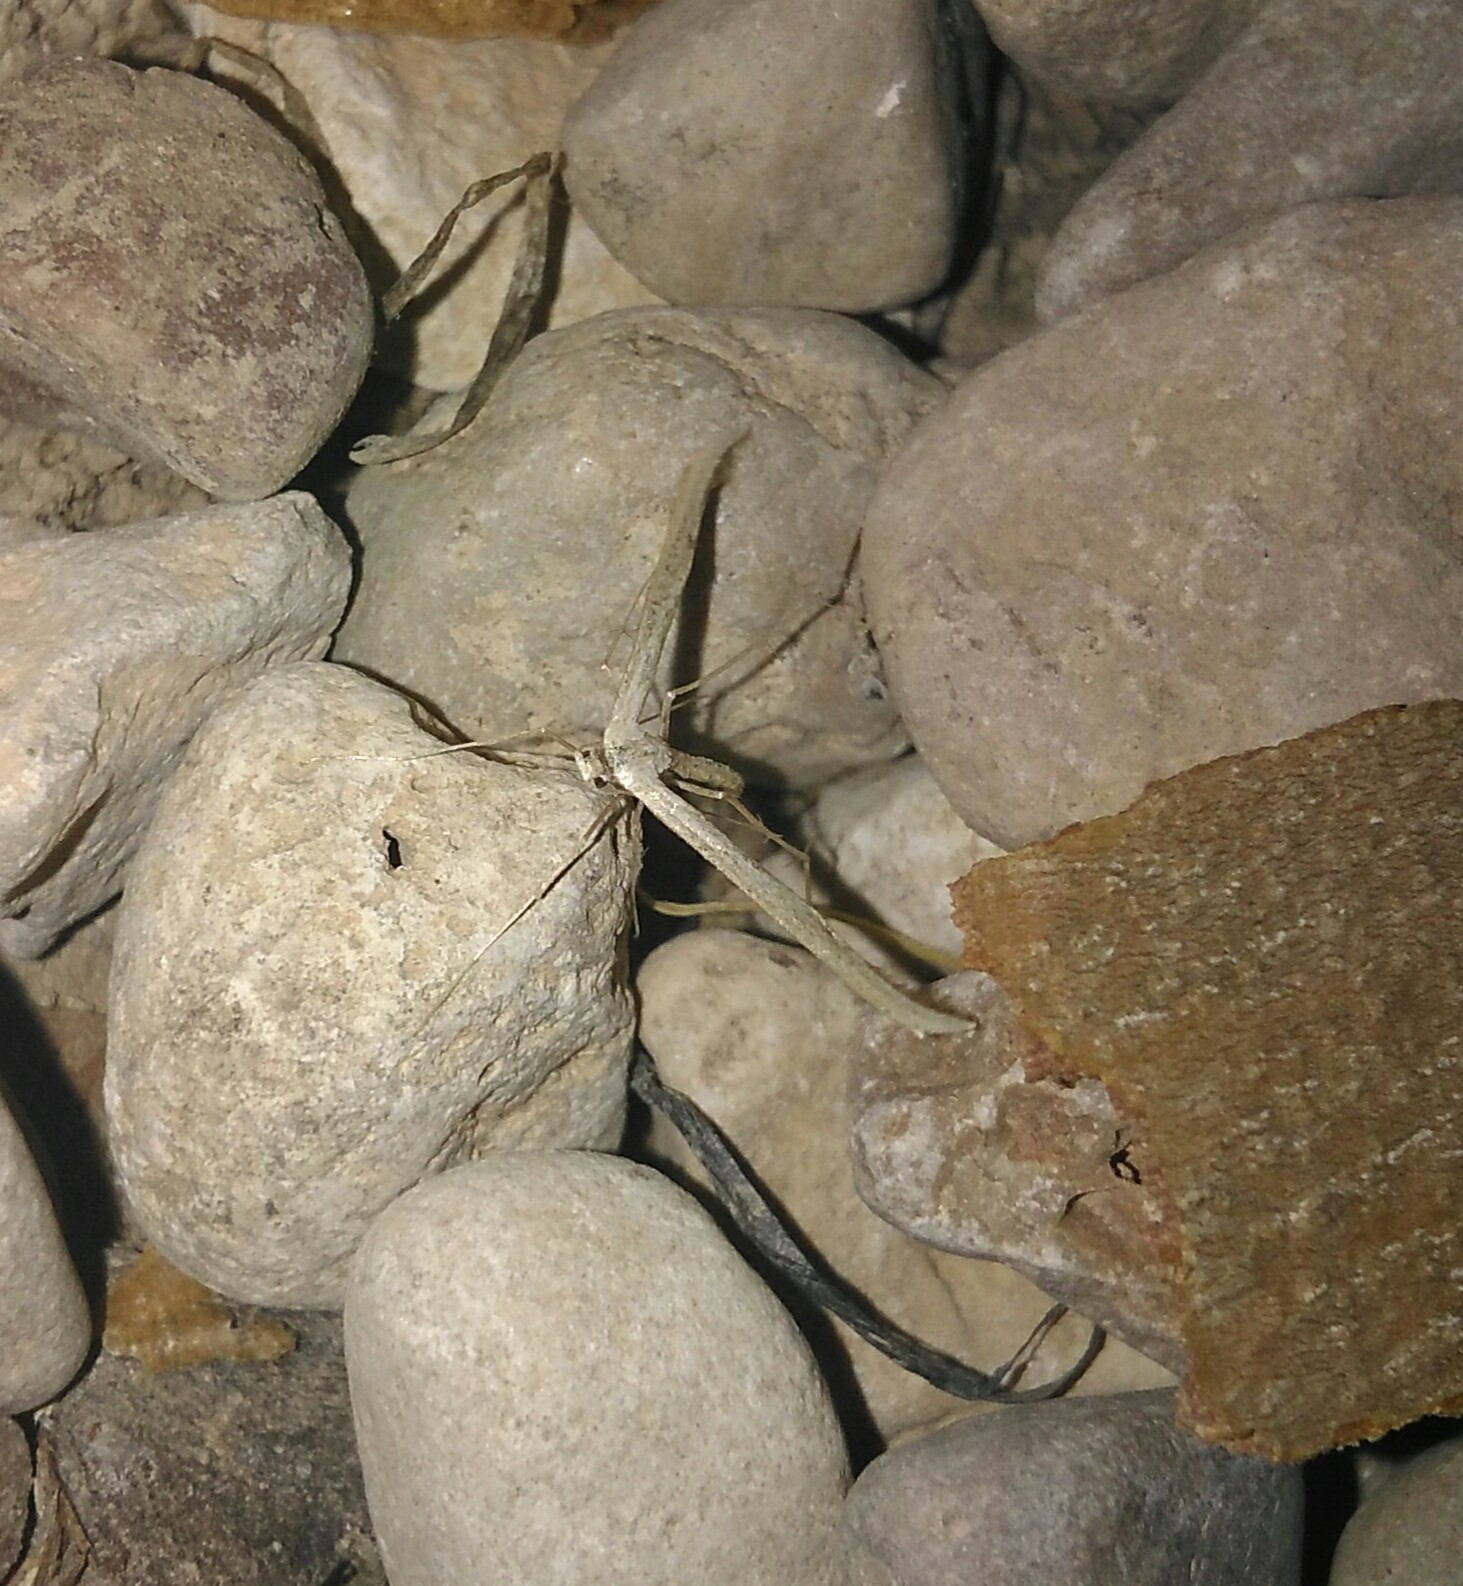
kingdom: Animalia
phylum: Arthropoda
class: Insecta
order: Lepidoptera
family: Pterophoridae
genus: Emmelina
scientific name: Emmelina monodactyla
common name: Common plume
